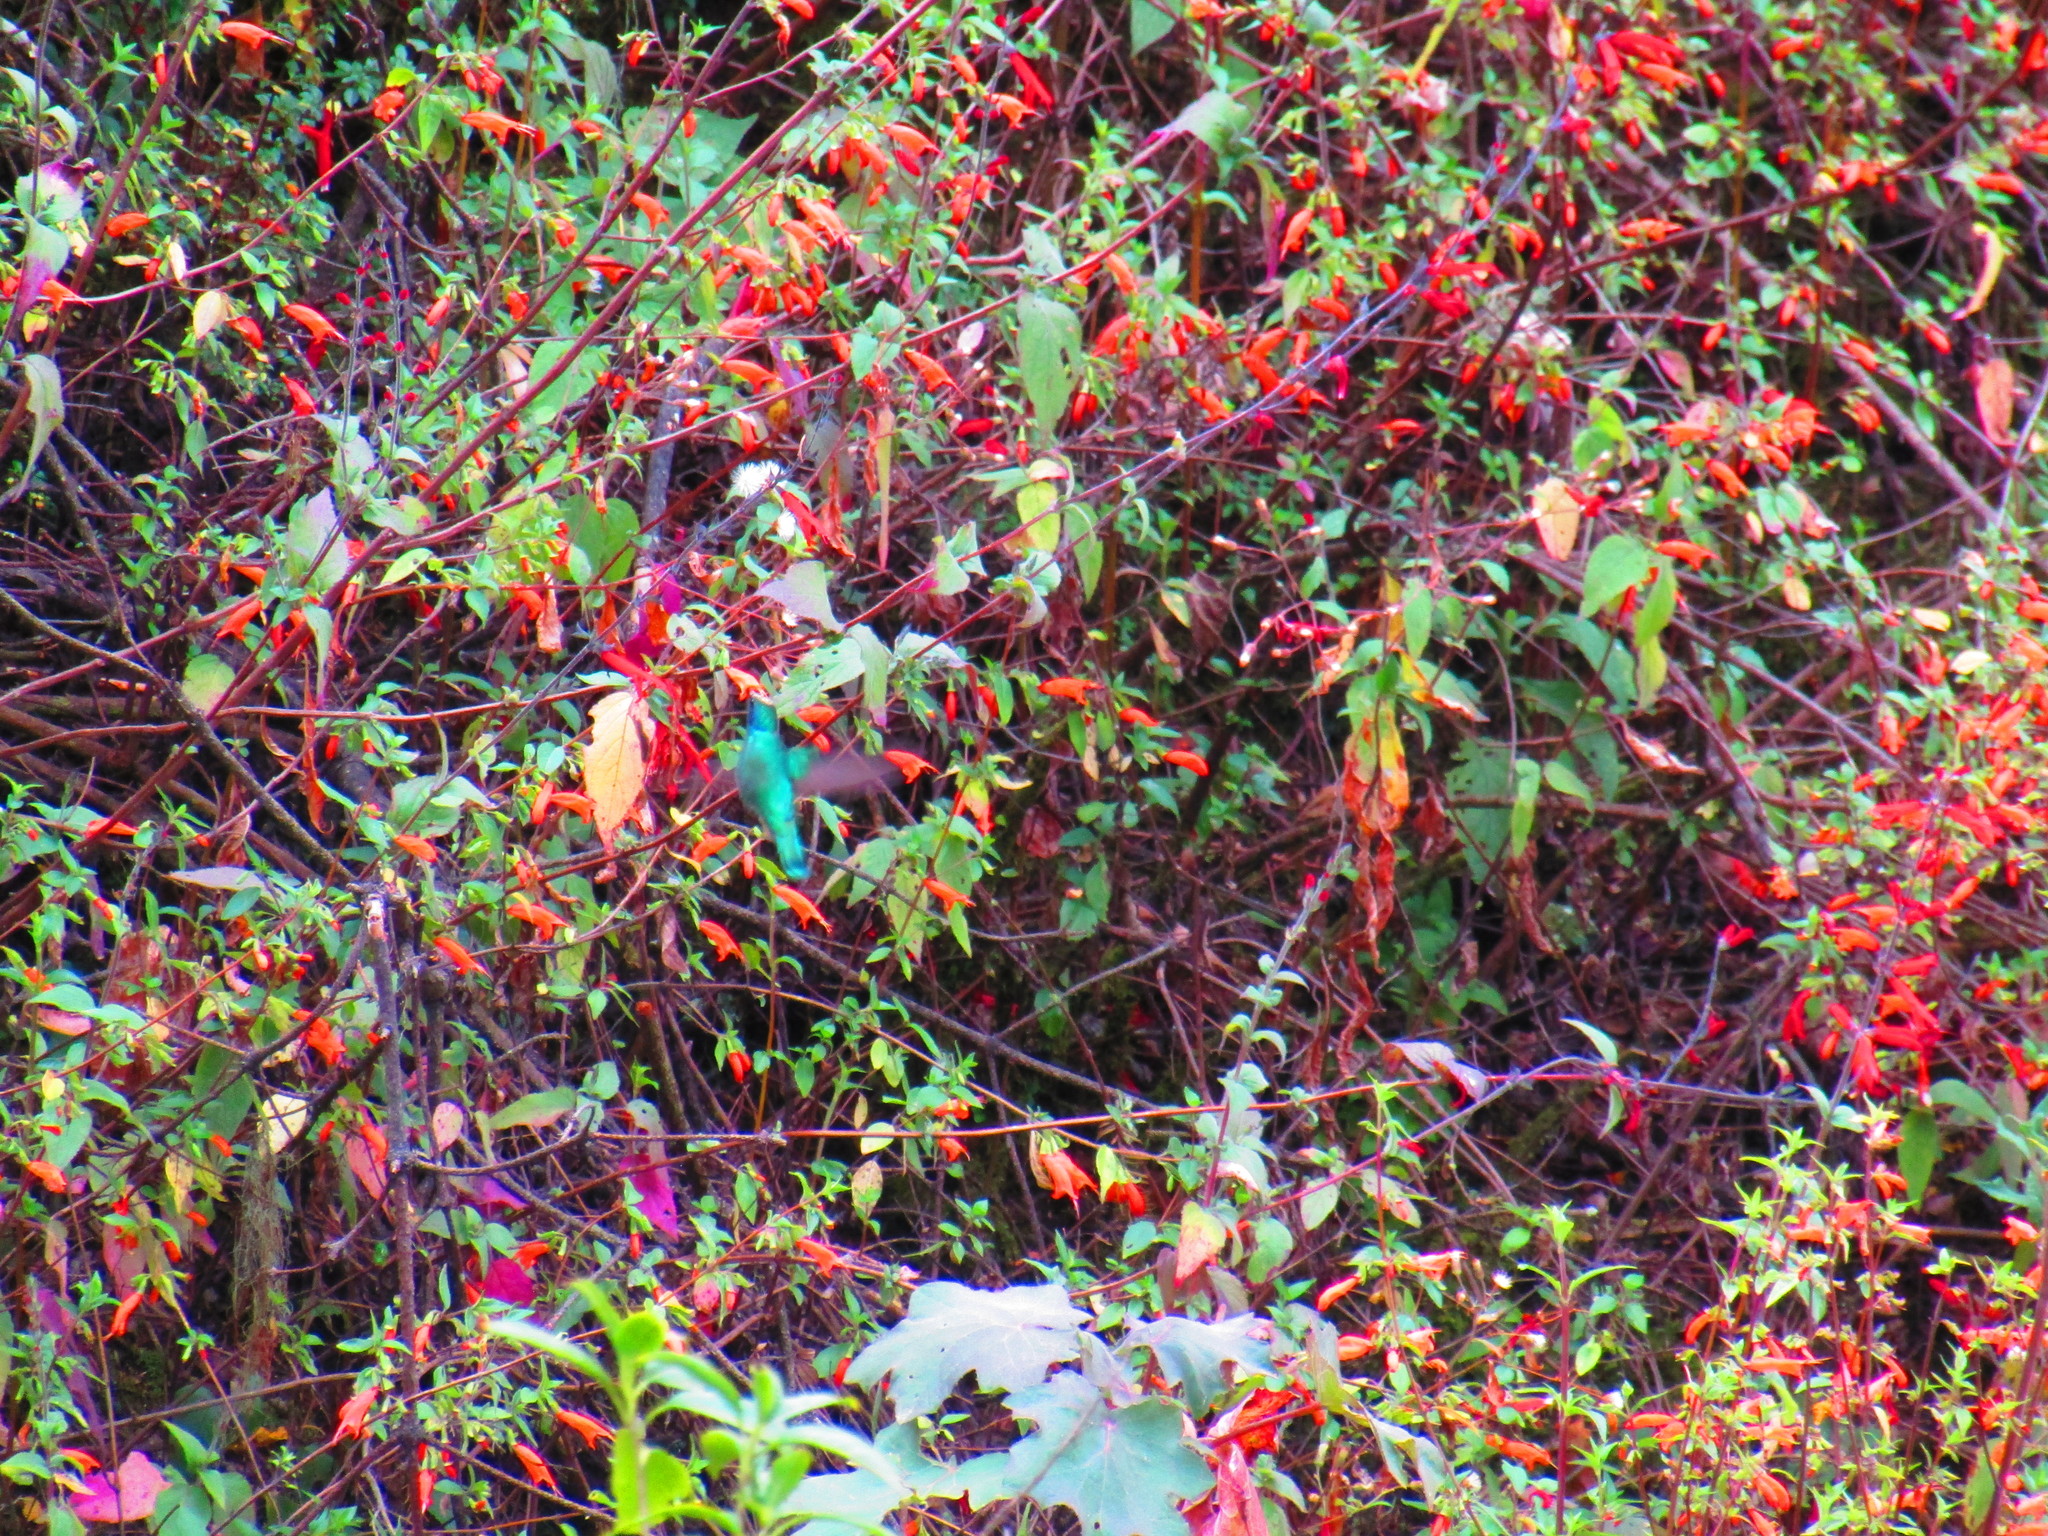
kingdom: Animalia
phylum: Chordata
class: Aves
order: Apodiformes
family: Trochilidae
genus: Colibri
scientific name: Colibri thalassinus
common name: Green violetear
